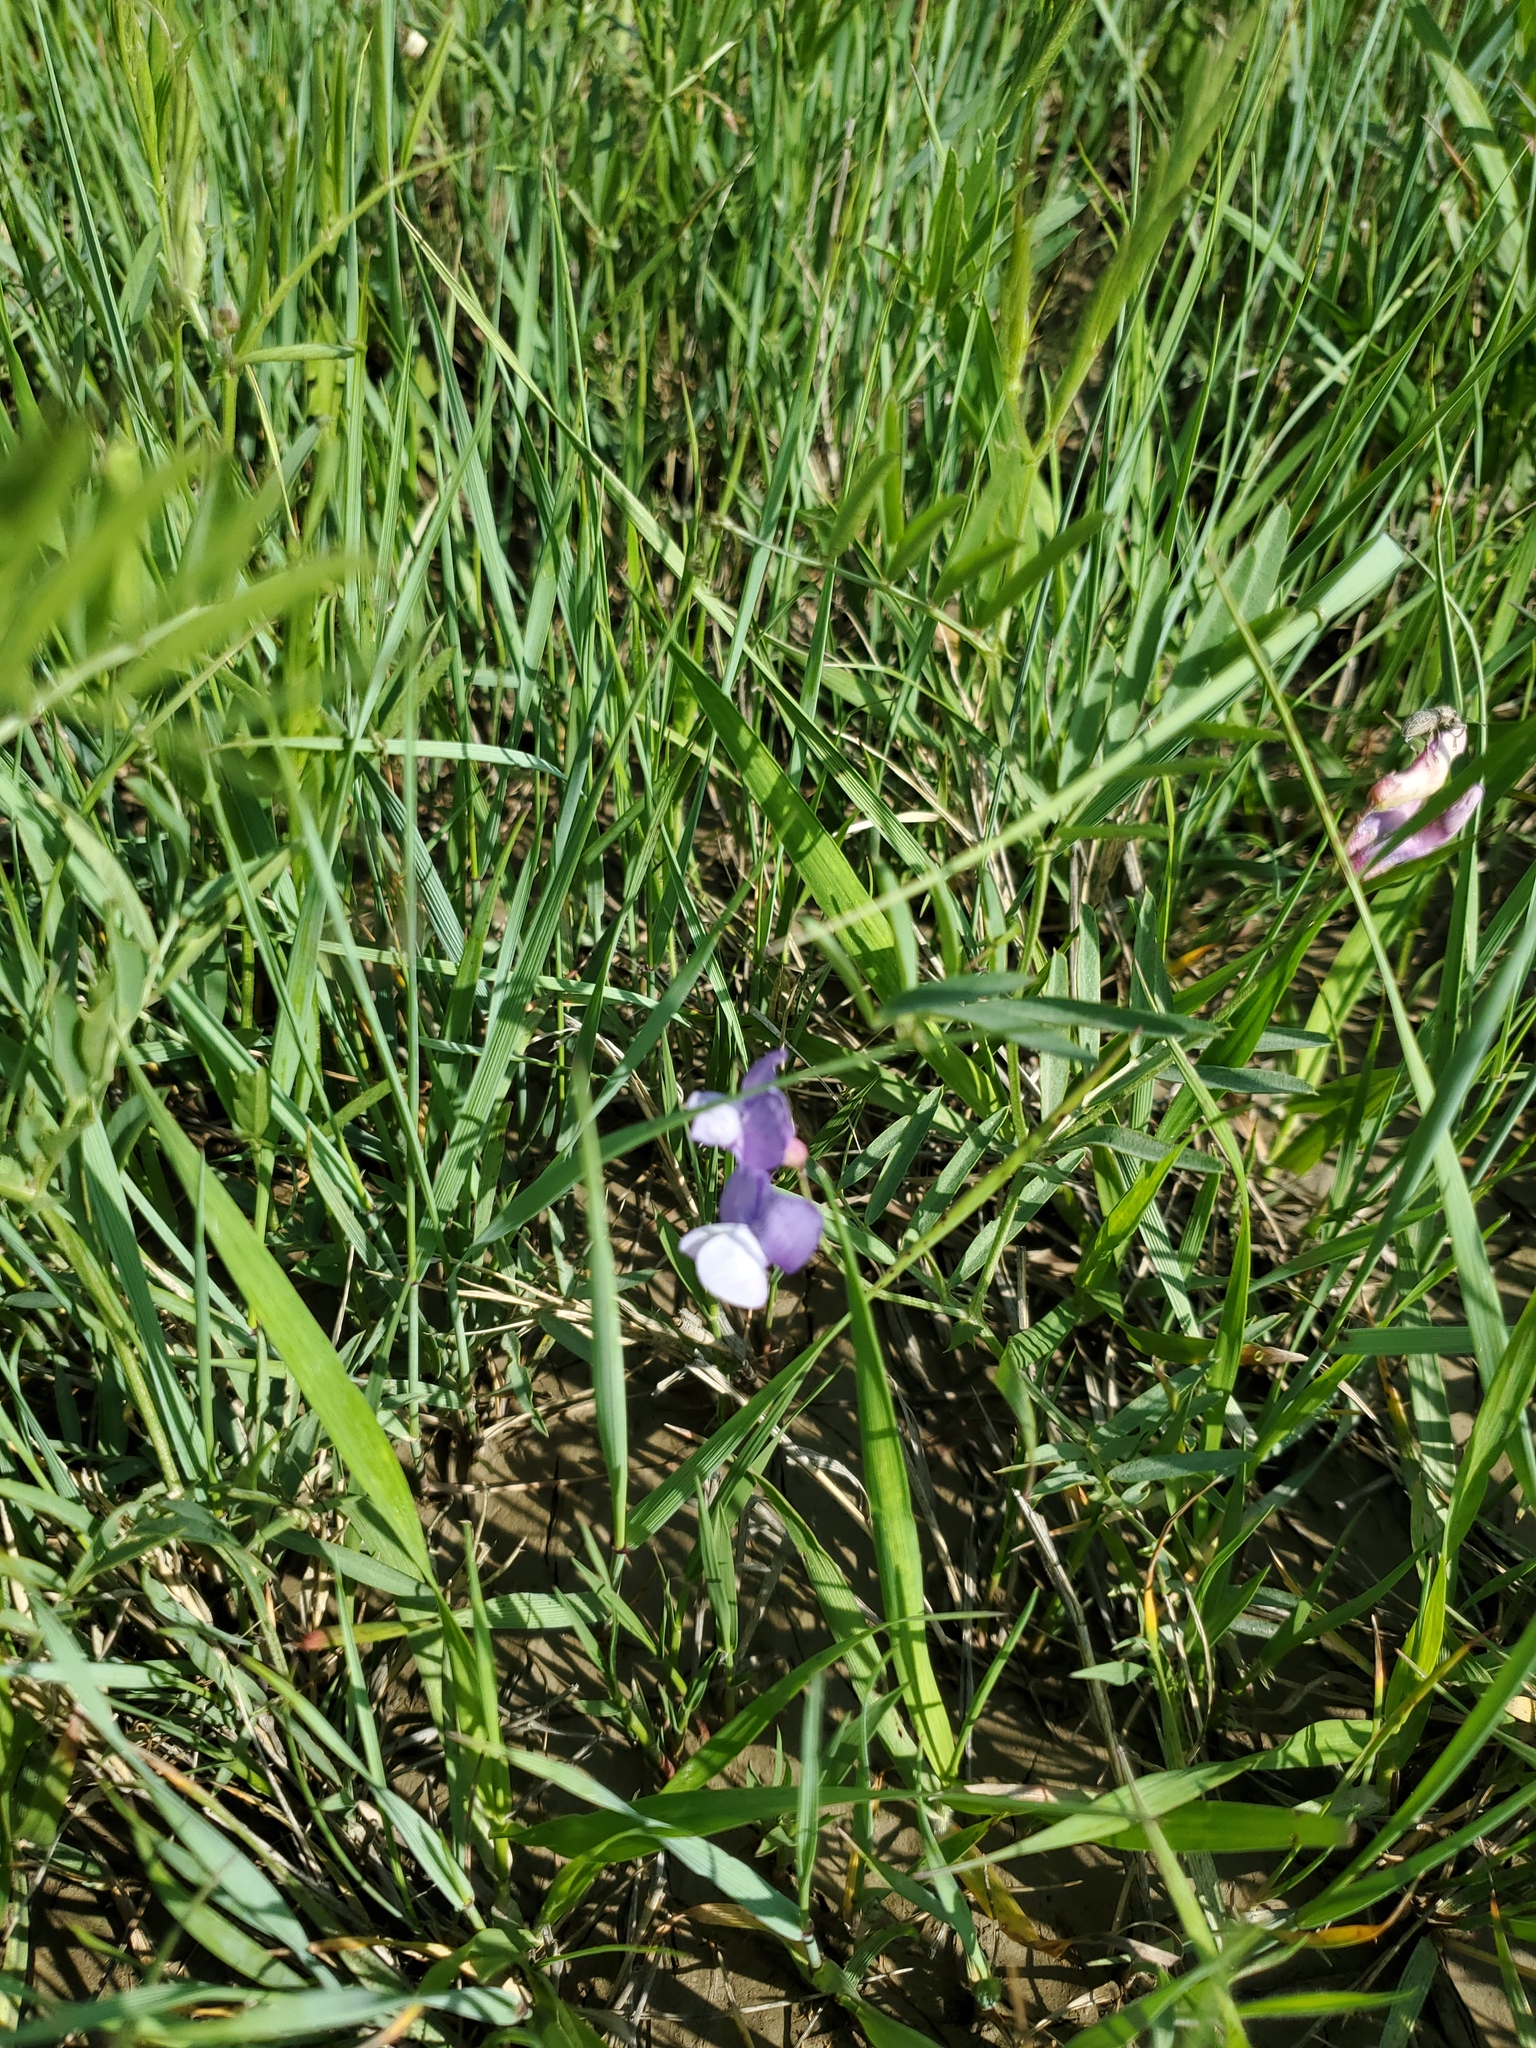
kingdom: Plantae
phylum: Tracheophyta
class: Magnoliopsida
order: Fabales
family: Fabaceae
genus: Vicia
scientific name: Vicia americana
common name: American vetch
